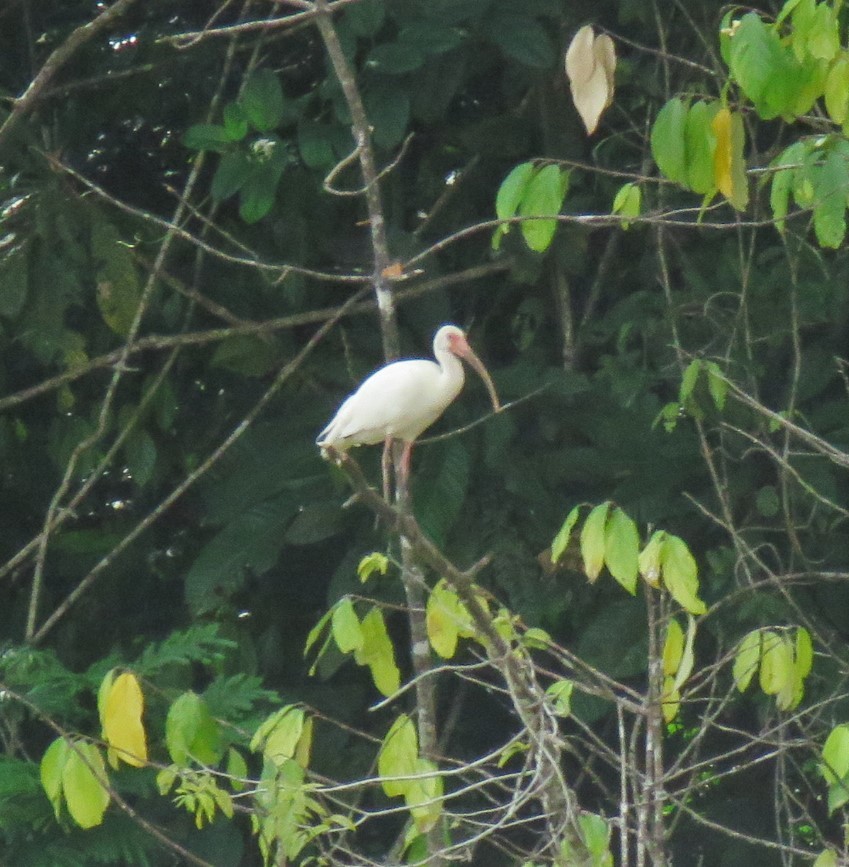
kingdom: Animalia
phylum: Chordata
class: Aves
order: Pelecaniformes
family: Threskiornithidae
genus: Eudocimus
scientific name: Eudocimus albus
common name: White ibis
